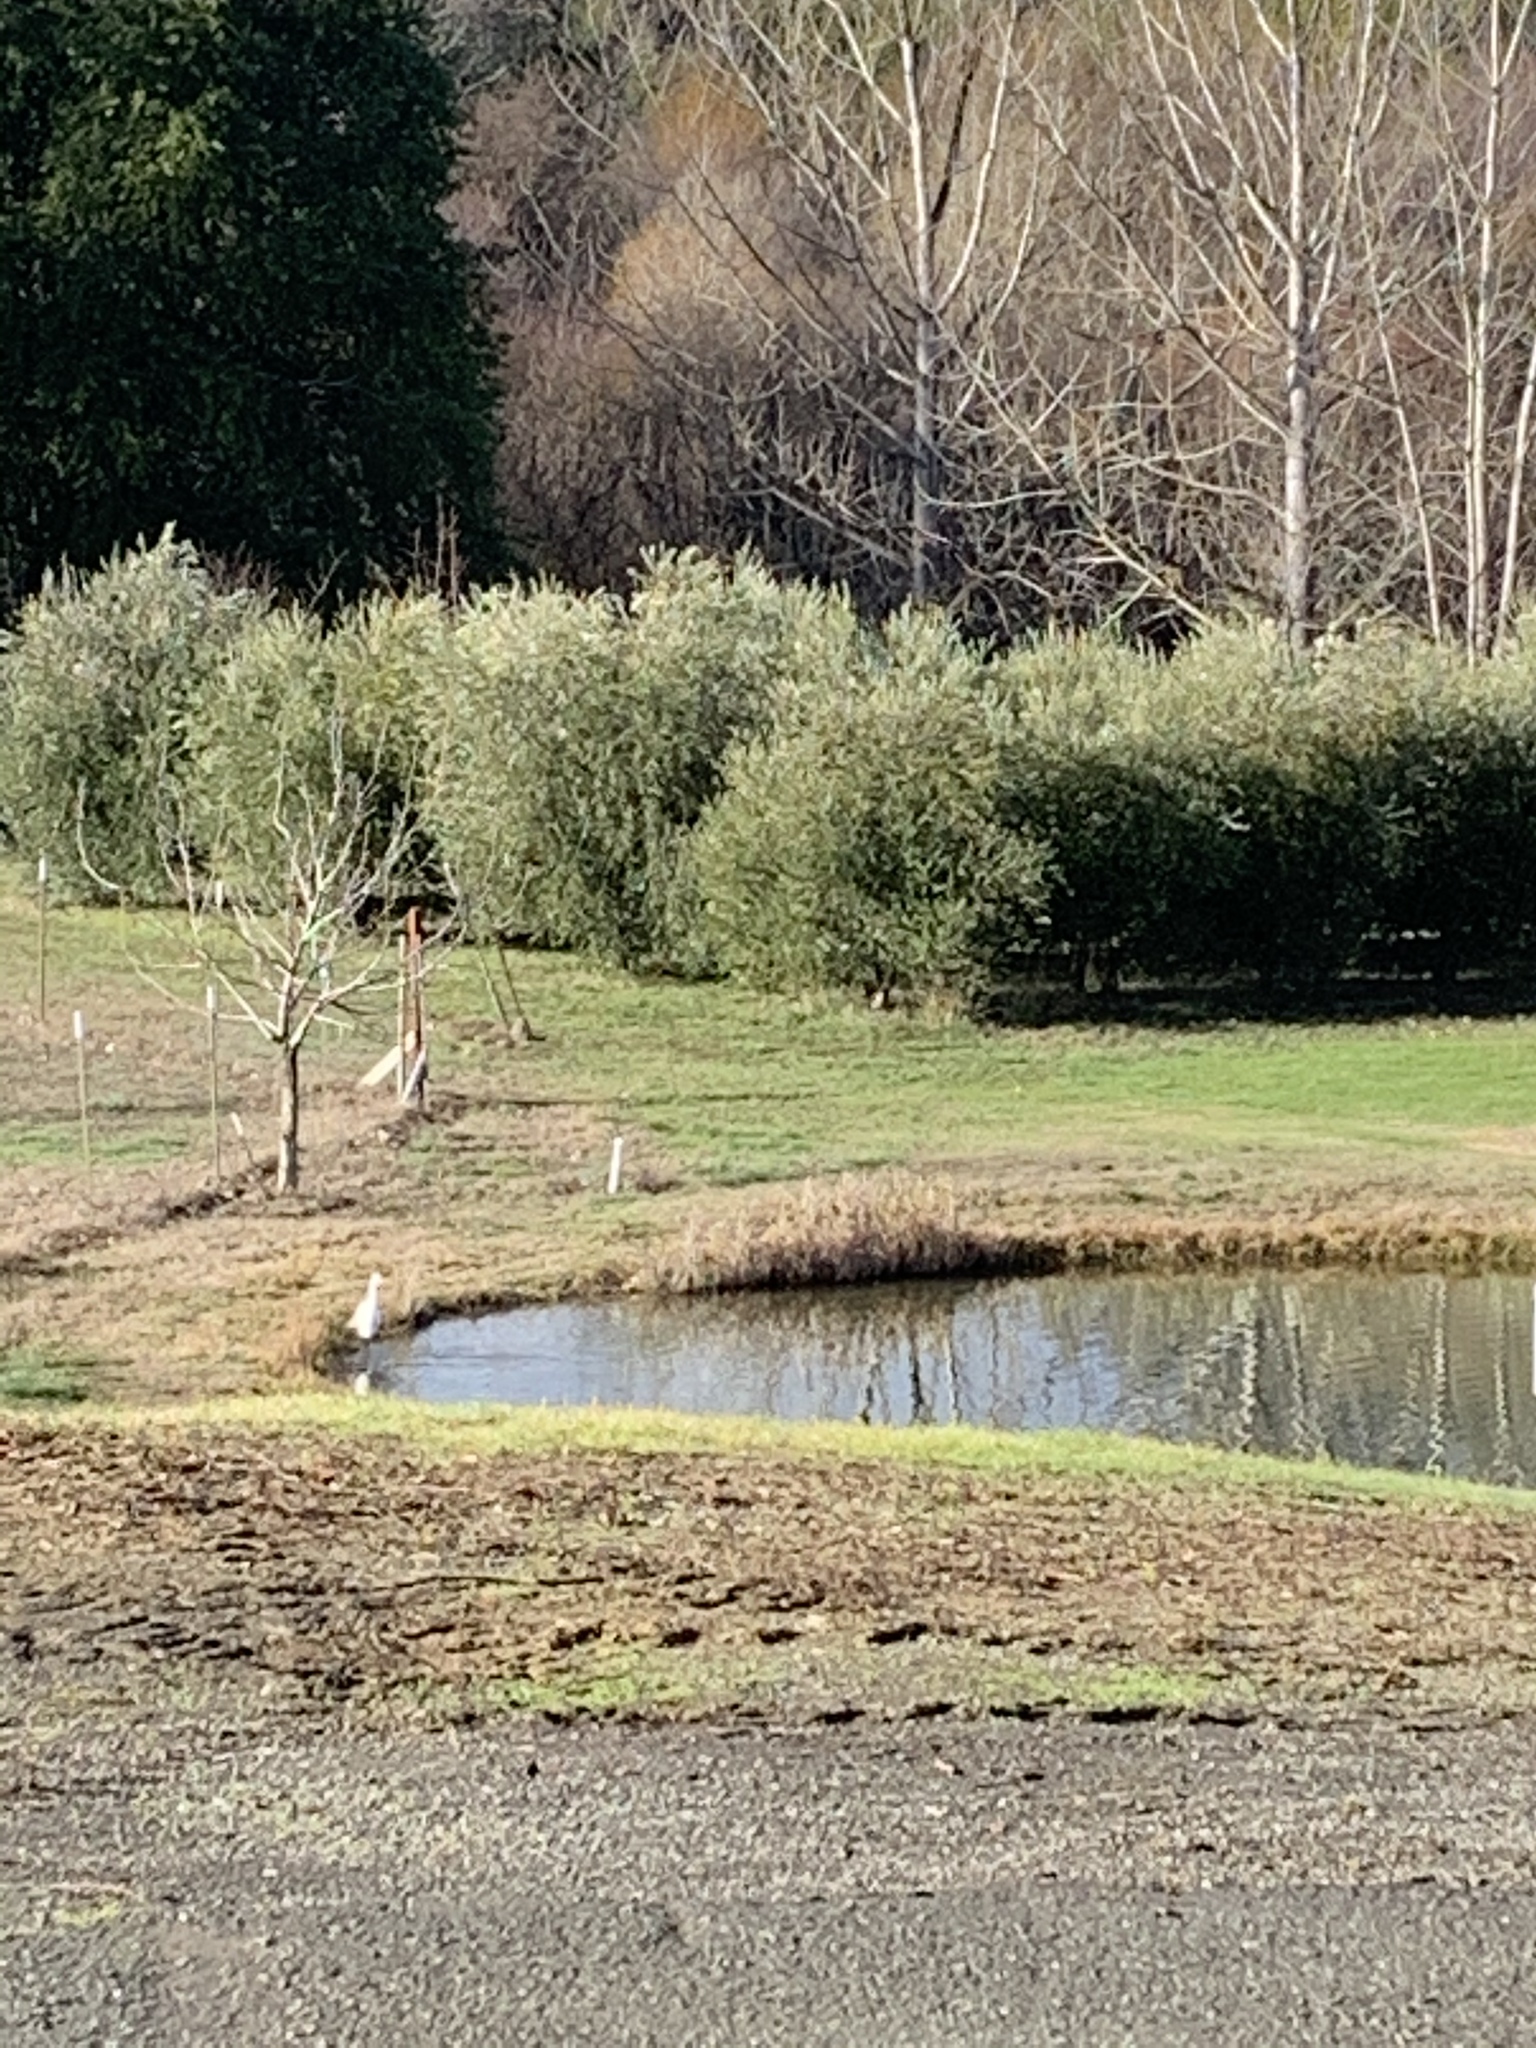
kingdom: Animalia
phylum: Chordata
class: Aves
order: Pelecaniformes
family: Ardeidae
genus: Ardea
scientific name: Ardea alba
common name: Great egret
